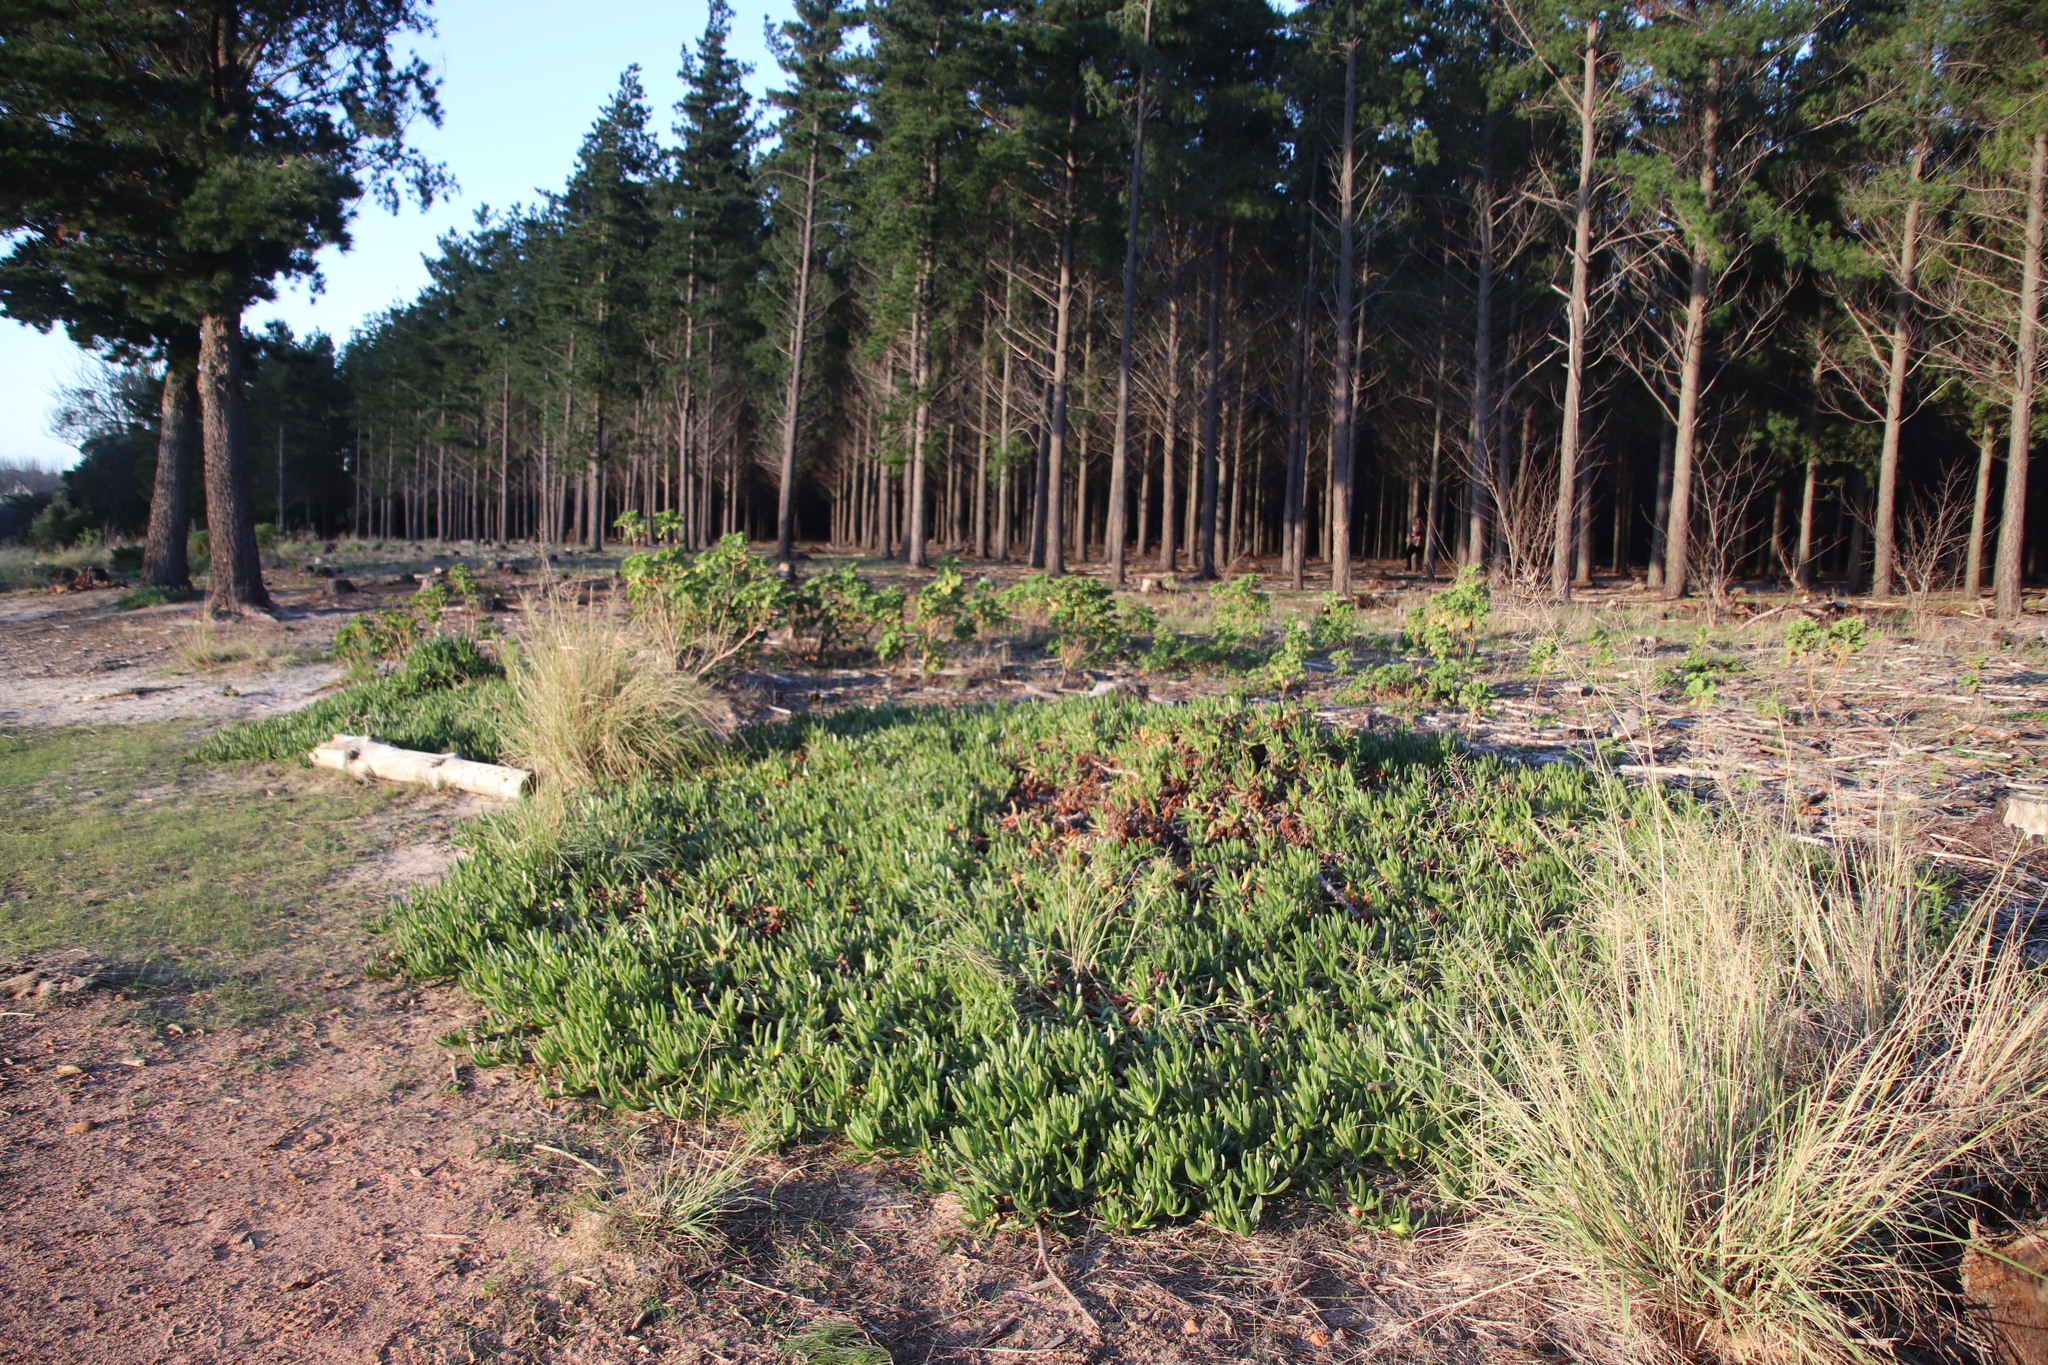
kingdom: Plantae
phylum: Tracheophyta
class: Magnoliopsida
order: Caryophyllales
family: Aizoaceae
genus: Carpobrotus
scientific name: Carpobrotus edulis
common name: Hottentot-fig
